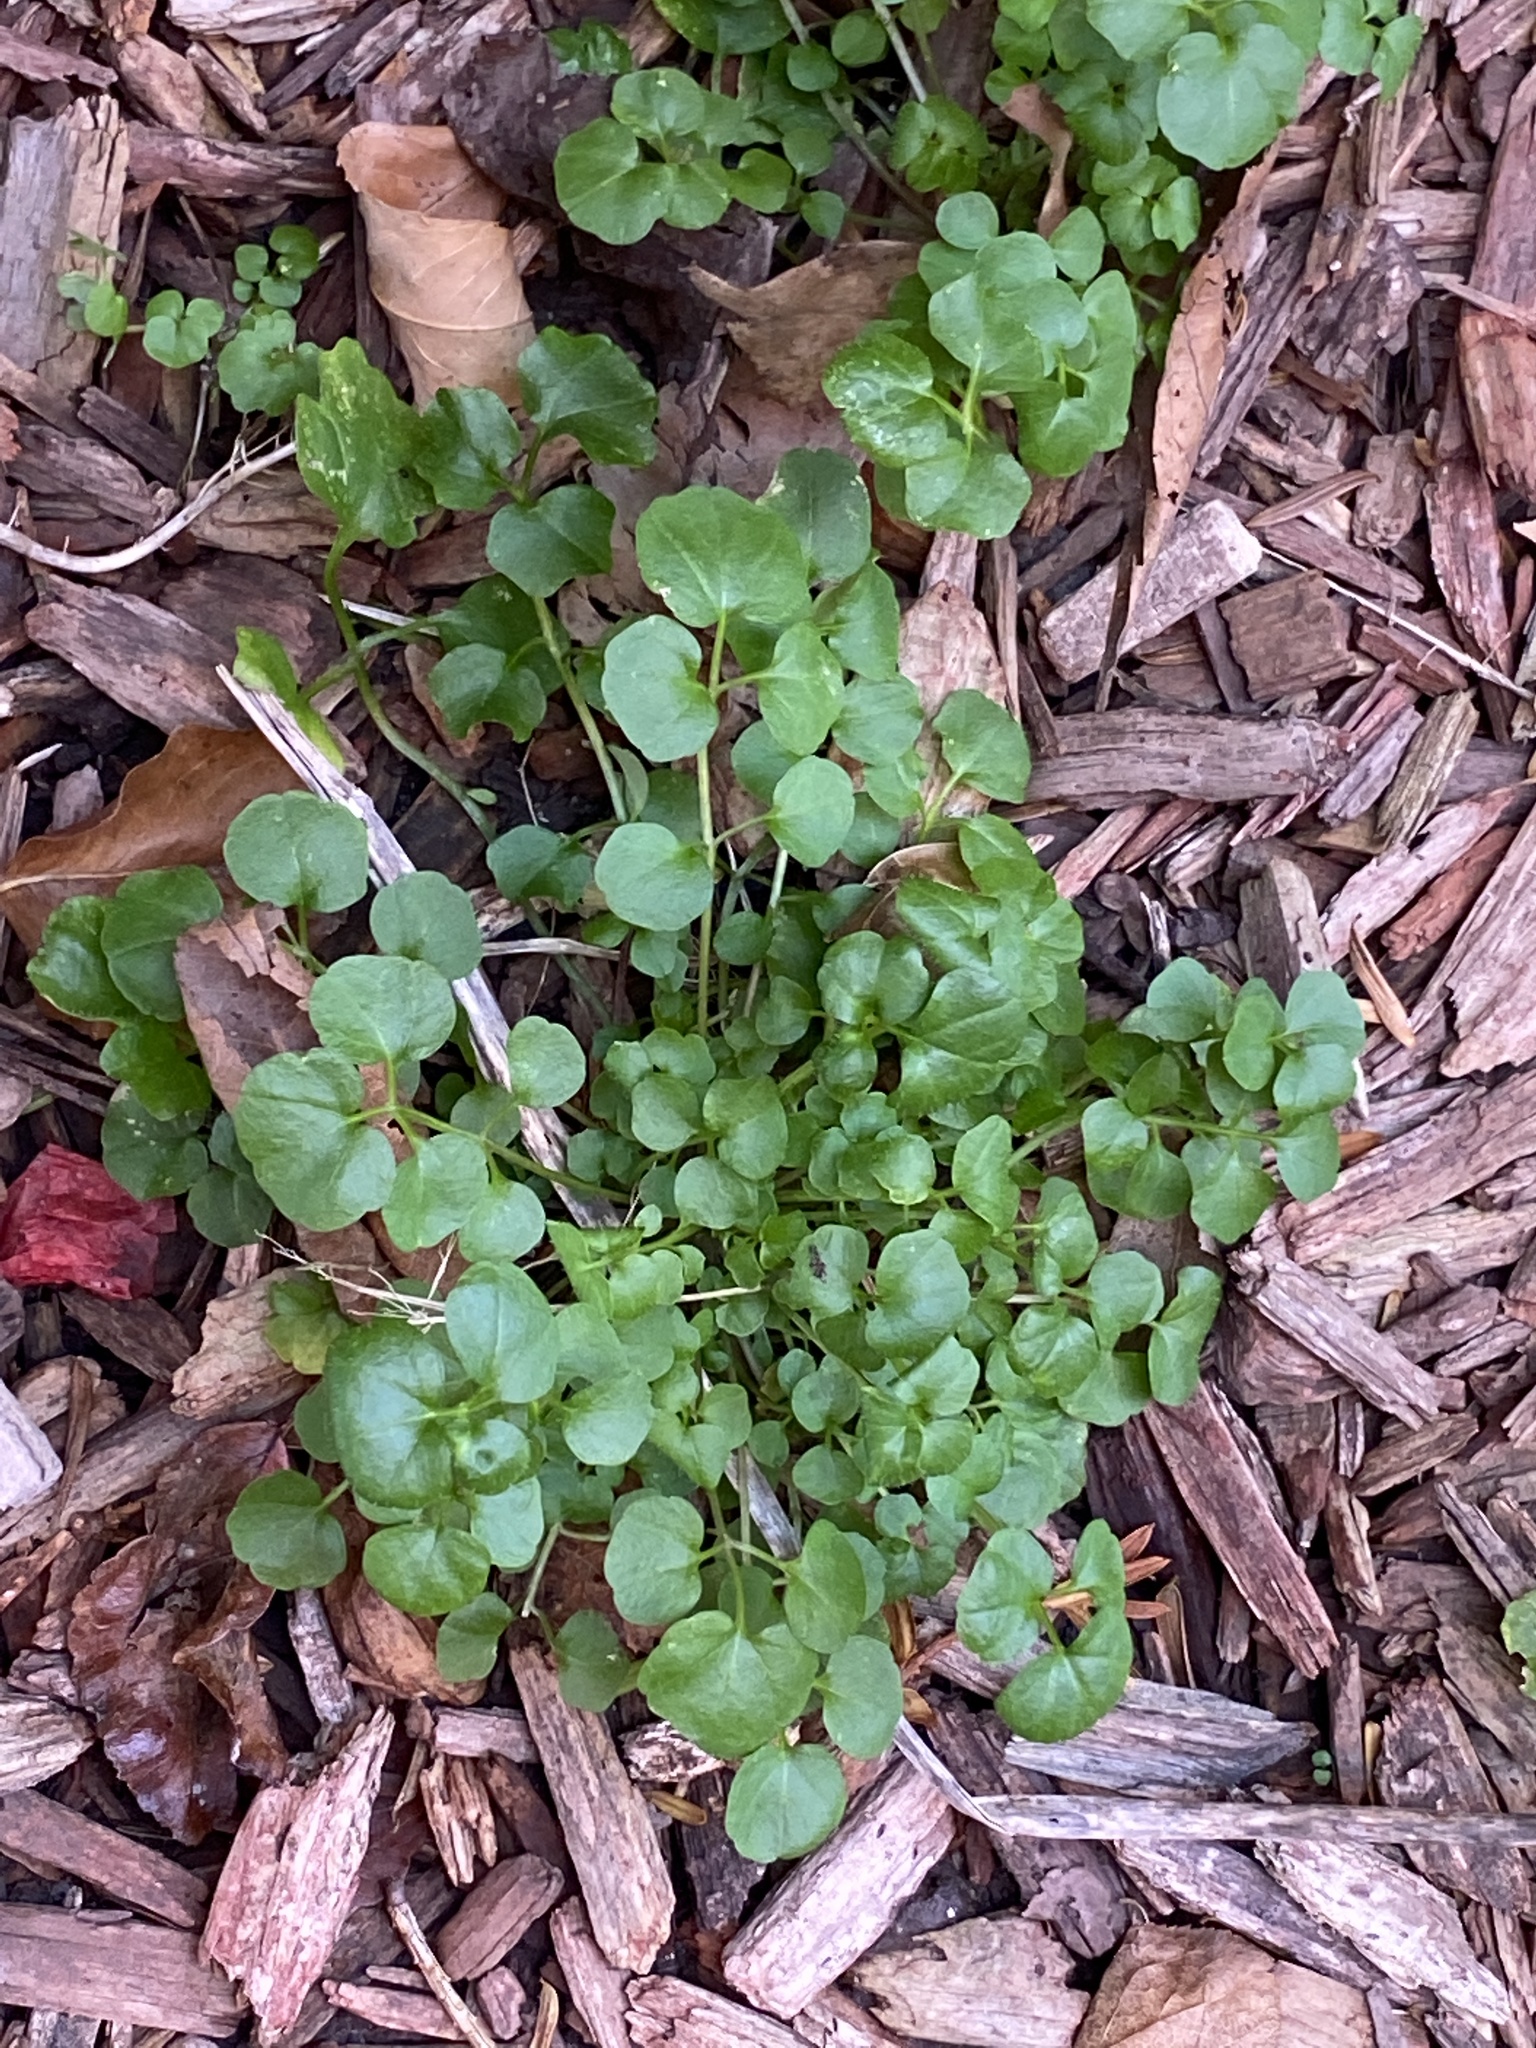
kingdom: Plantae
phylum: Tracheophyta
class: Magnoliopsida
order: Brassicales
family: Brassicaceae
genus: Cardamine
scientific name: Cardamine hirsuta
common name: Hairy bittercress
